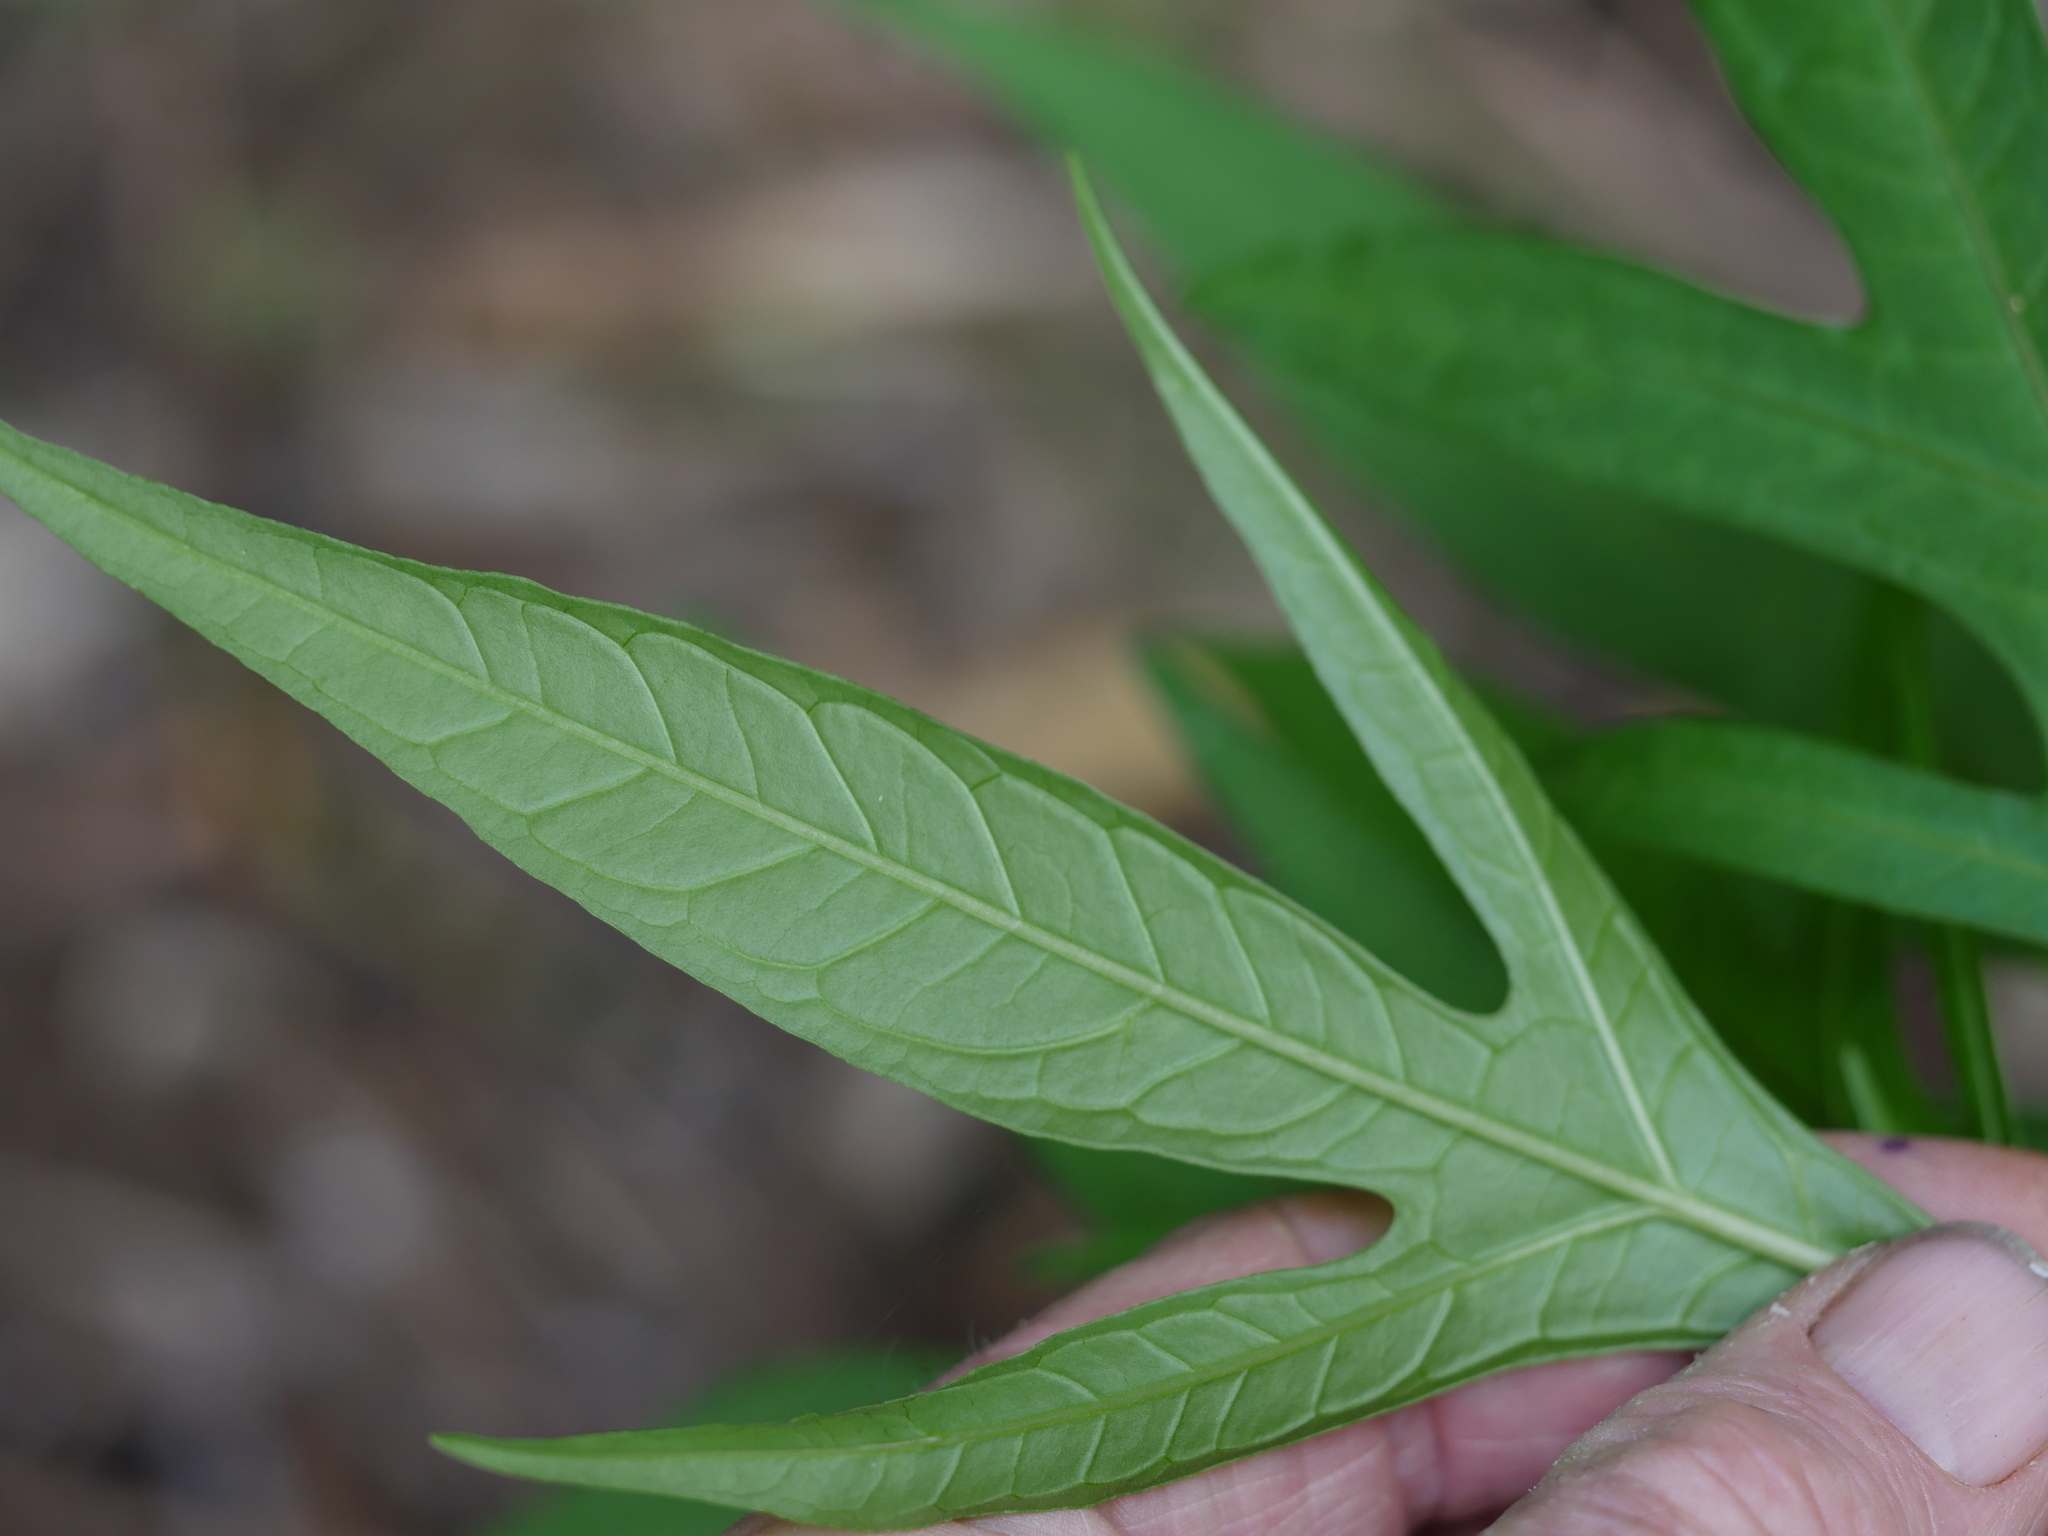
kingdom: Plantae
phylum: Tracheophyta
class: Magnoliopsida
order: Solanales
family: Solanaceae
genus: Solanum
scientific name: Solanum
